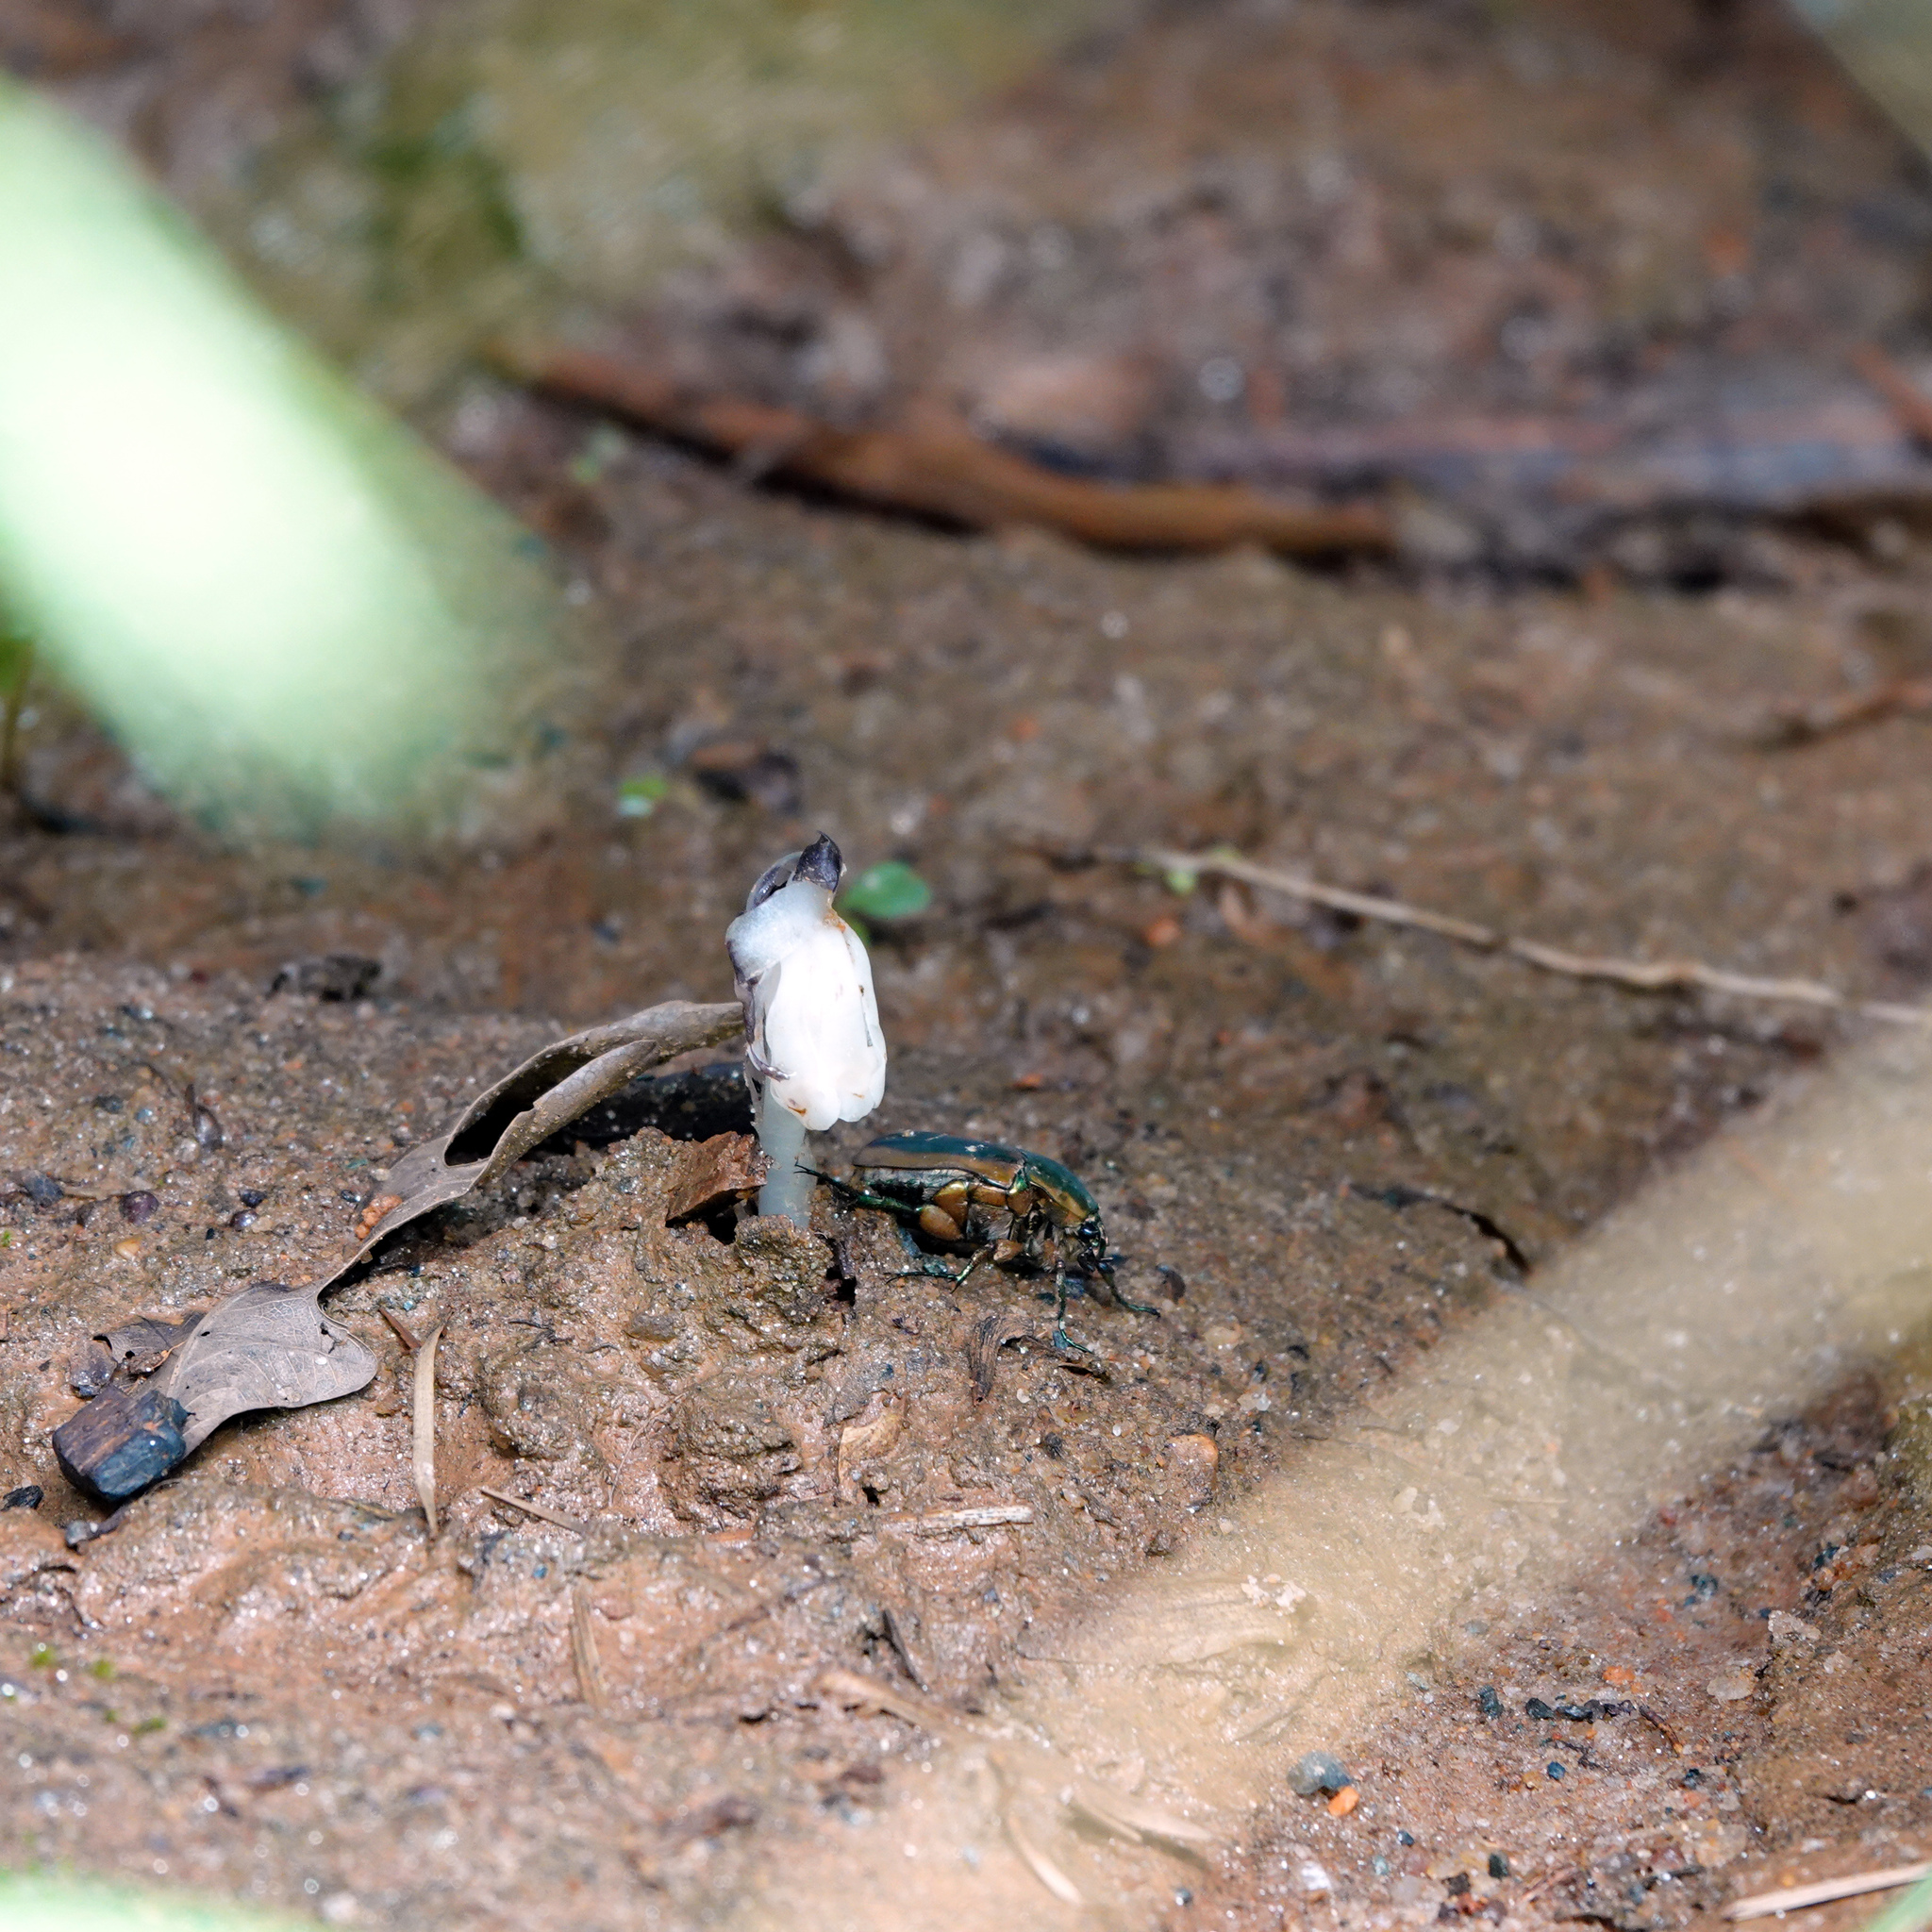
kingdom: Plantae
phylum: Tracheophyta
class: Magnoliopsida
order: Ericales
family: Ericaceae
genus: Monotropa
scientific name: Monotropa uniflora
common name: Convulsion root
